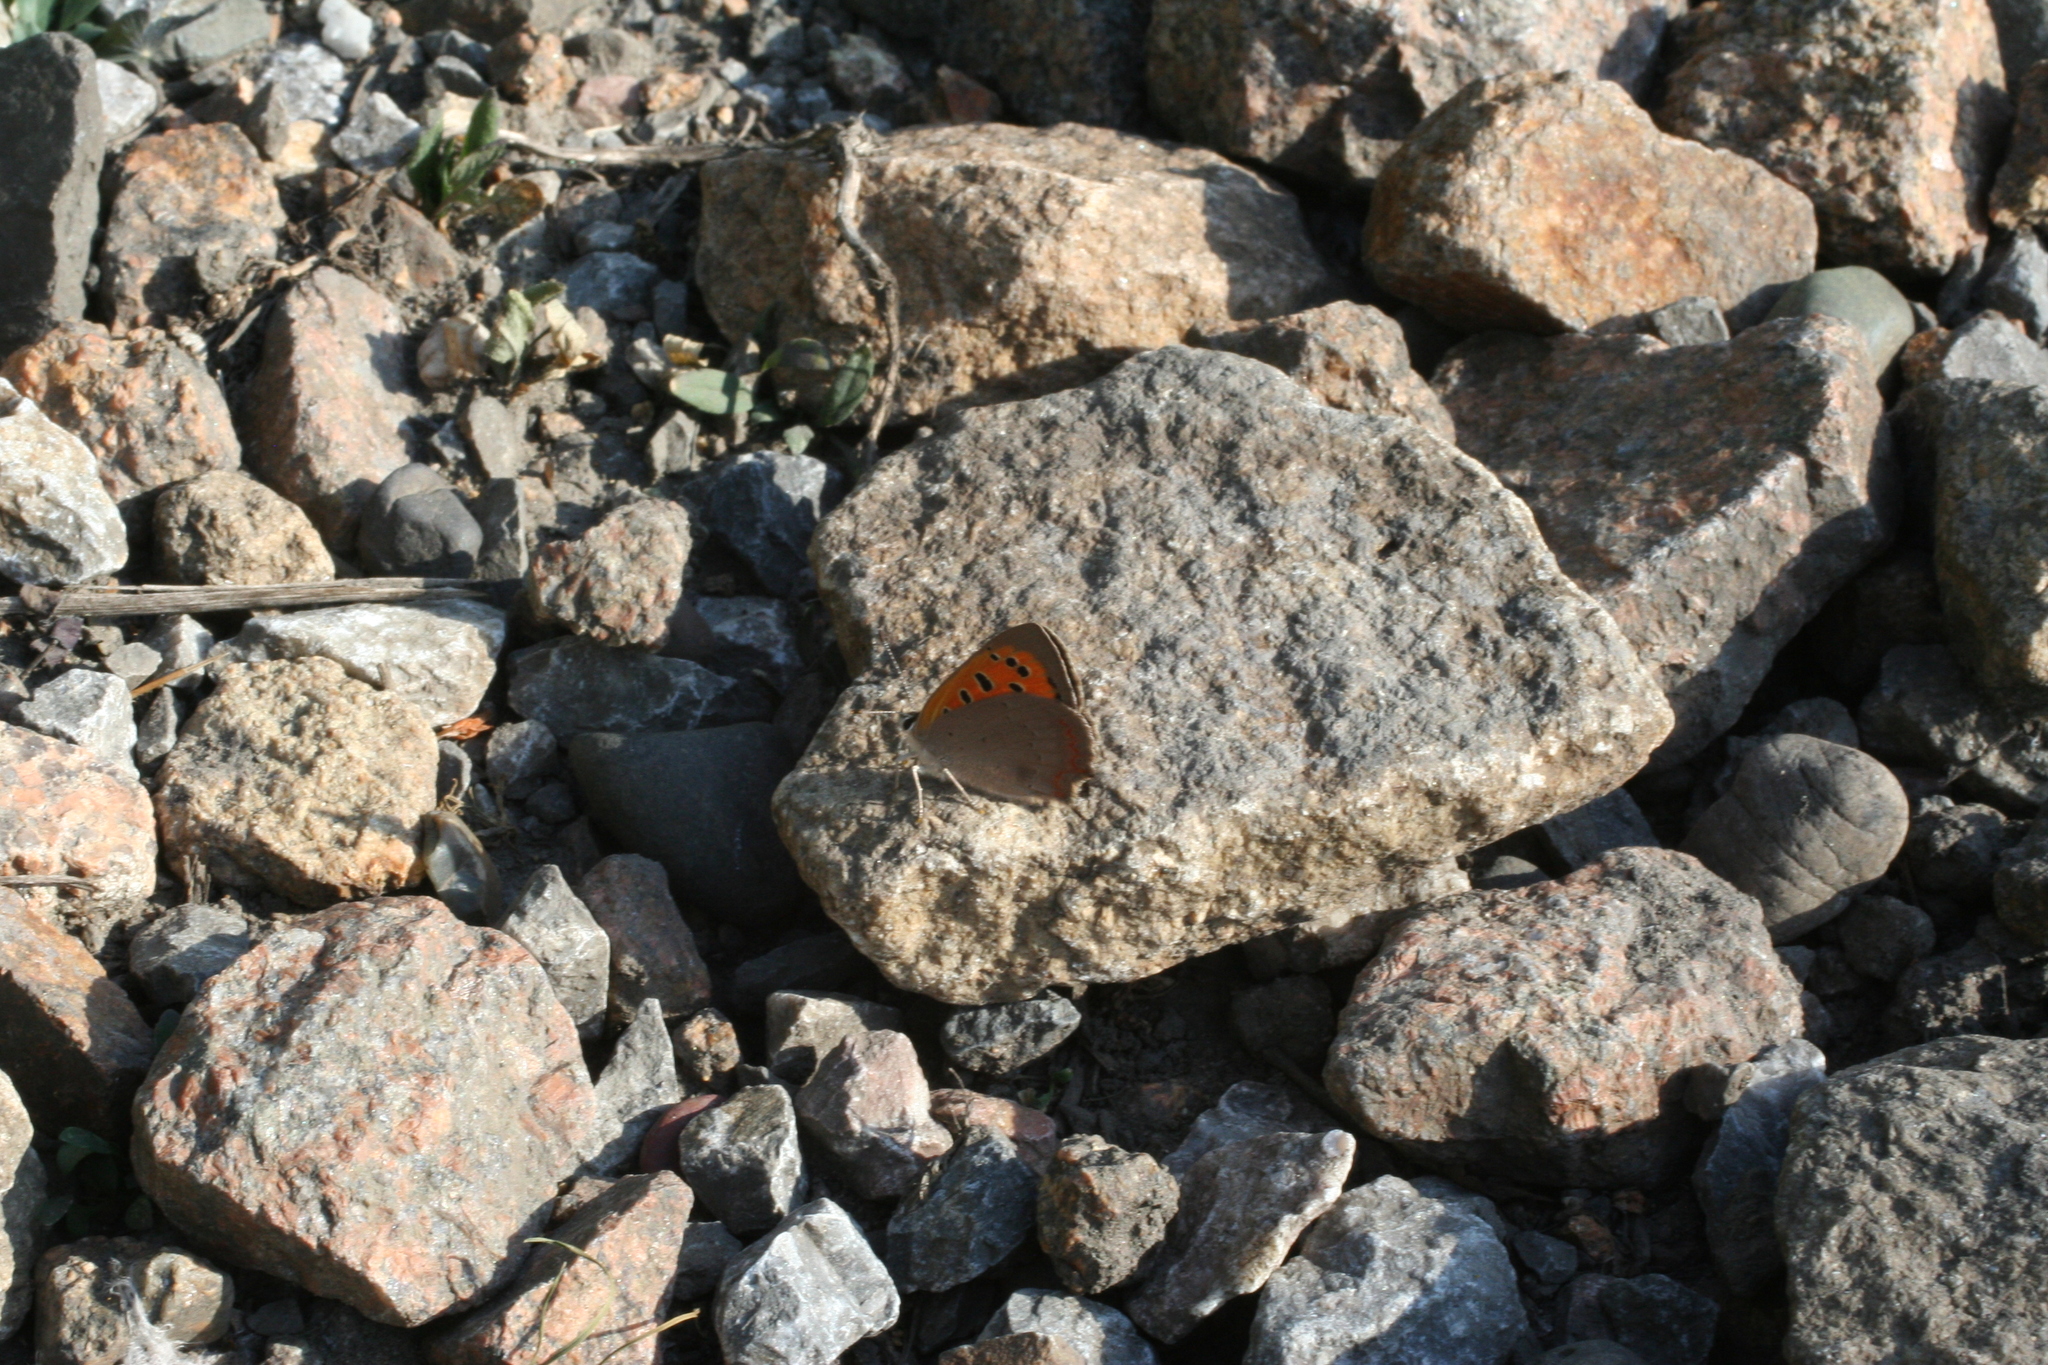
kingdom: Animalia
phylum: Arthropoda
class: Insecta
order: Lepidoptera
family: Lycaenidae
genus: Lycaena
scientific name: Lycaena phlaeas
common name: Small copper
